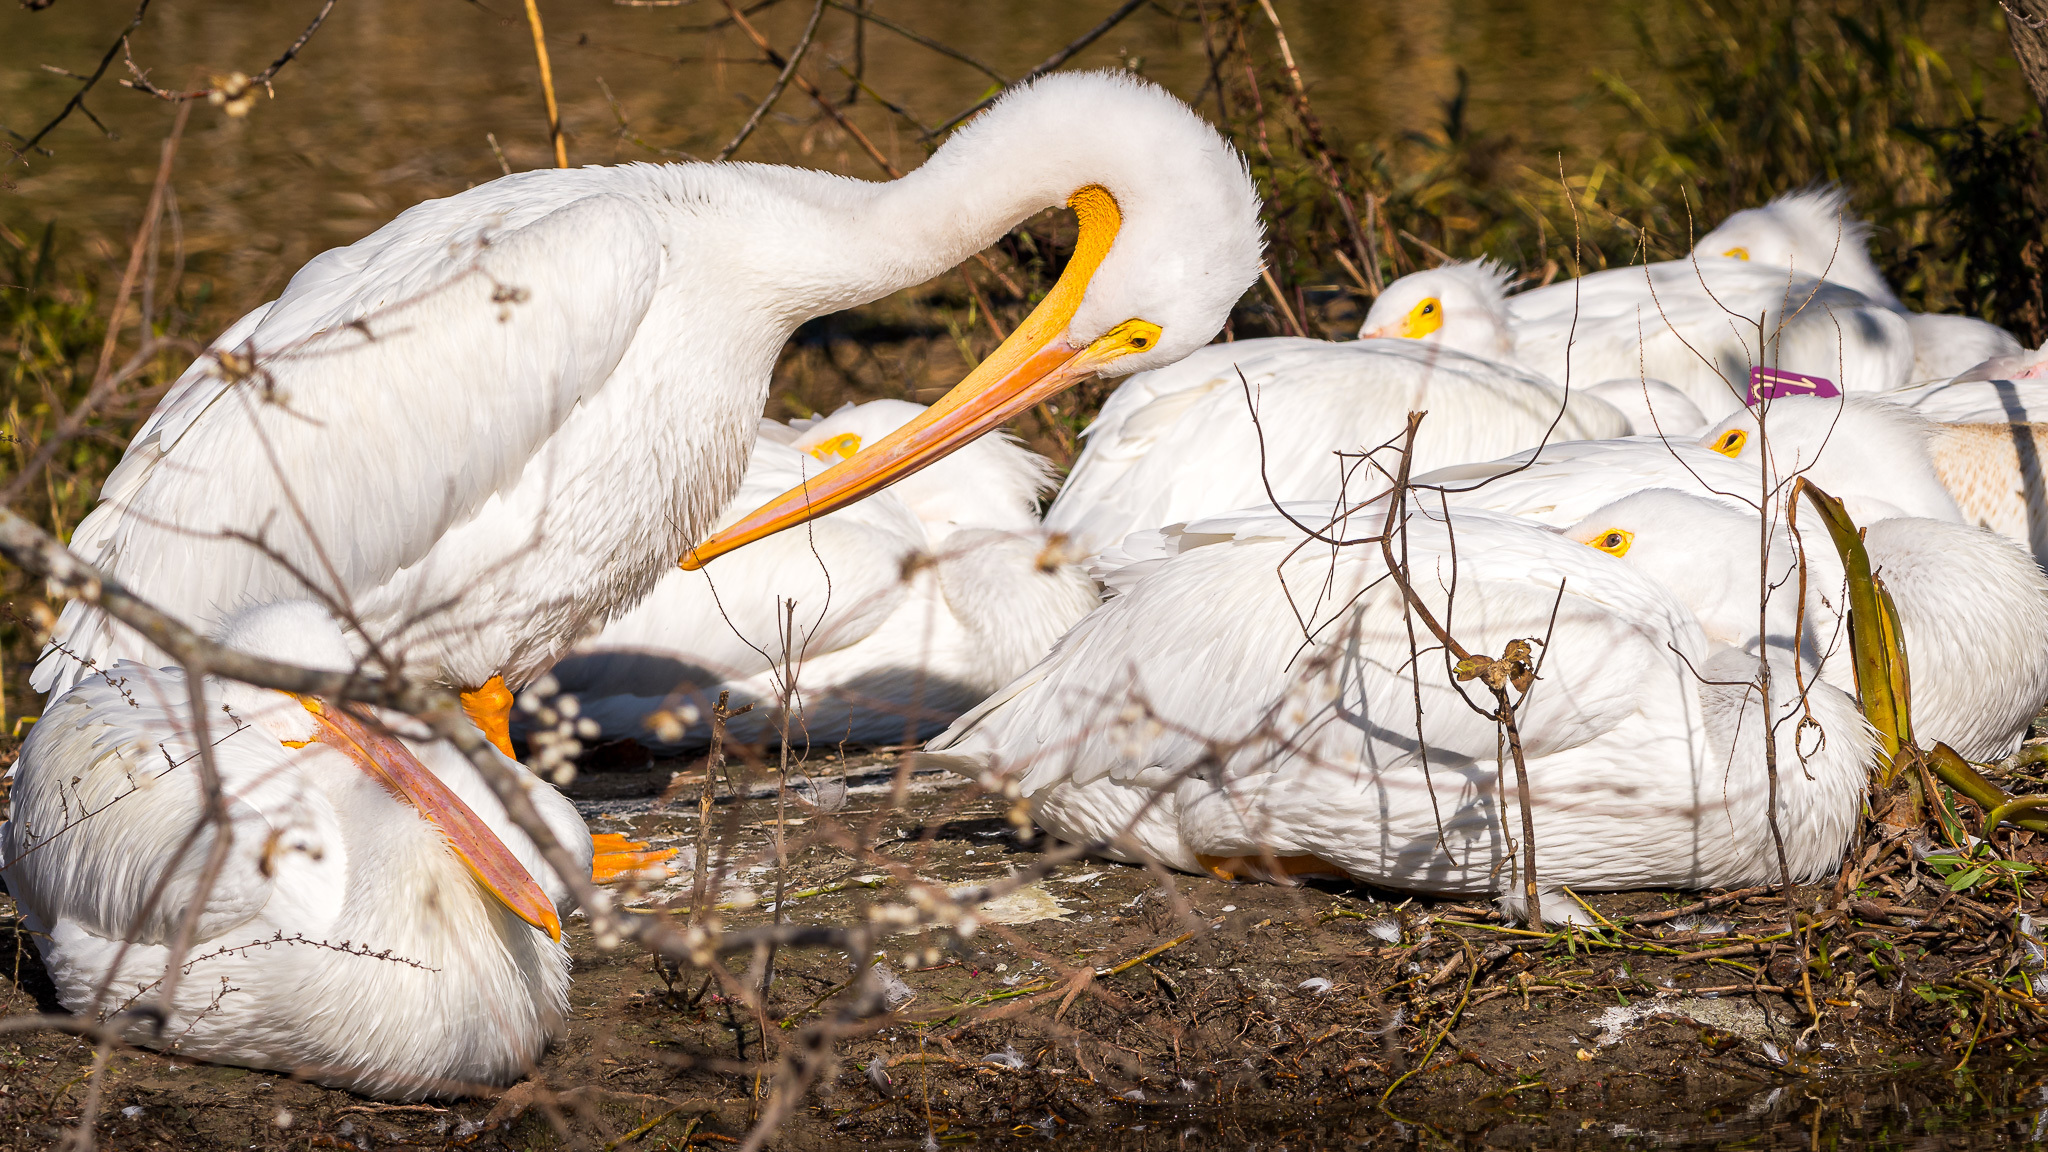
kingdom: Animalia
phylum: Chordata
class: Aves
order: Pelecaniformes
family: Pelecanidae
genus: Pelecanus
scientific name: Pelecanus erythrorhynchos
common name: American white pelican
